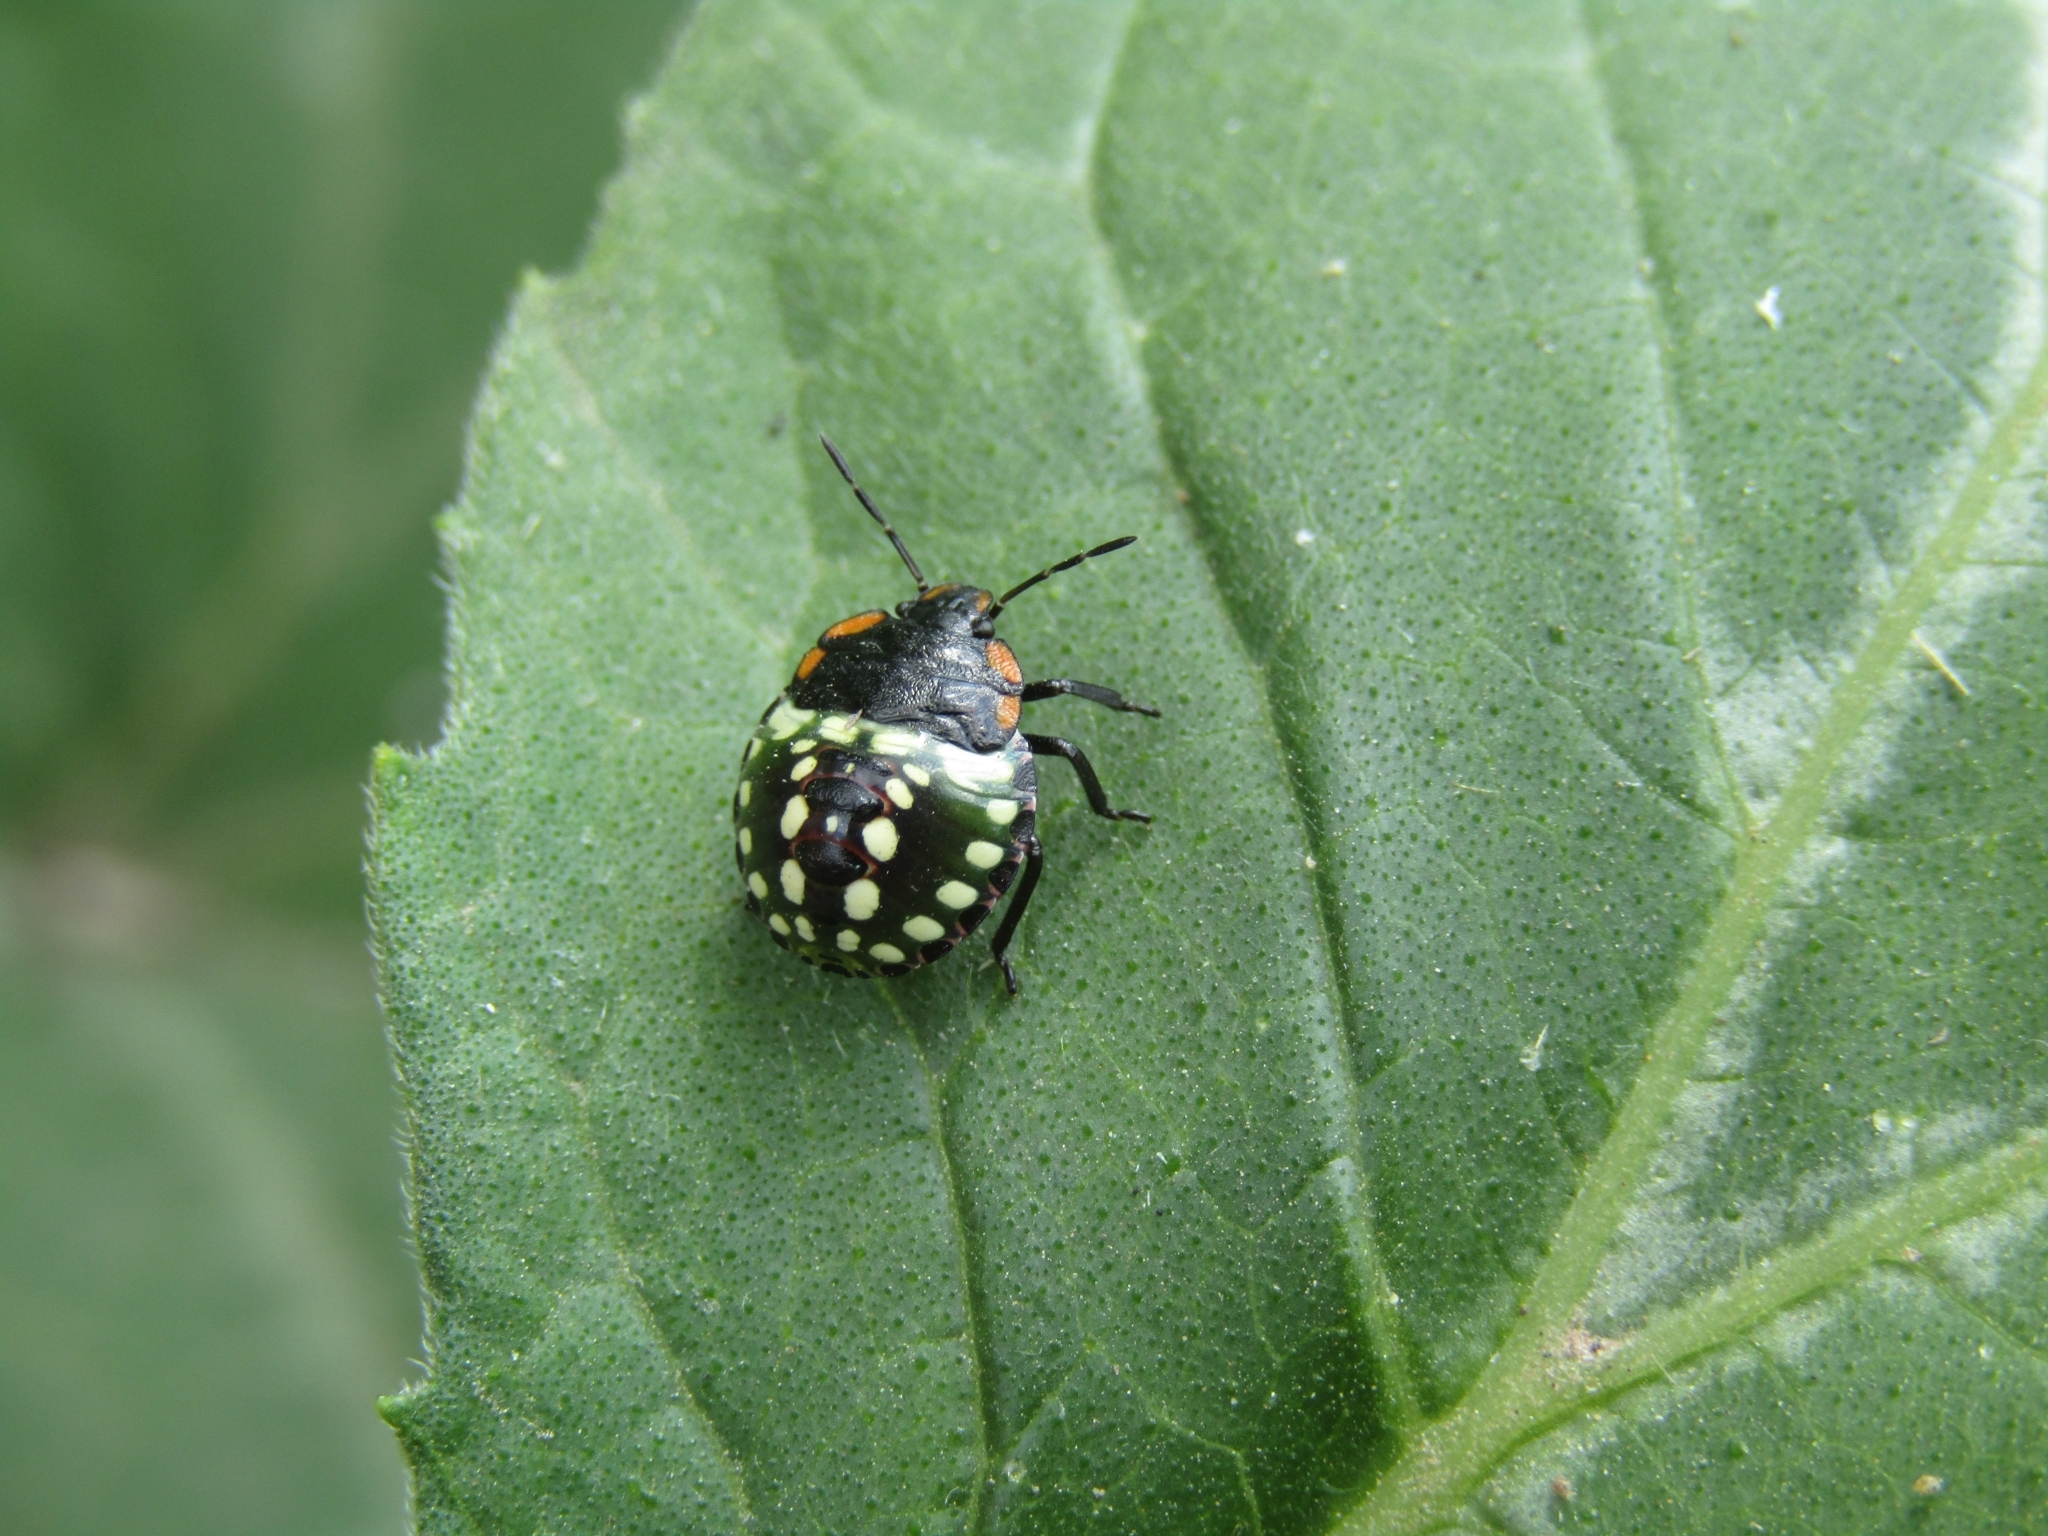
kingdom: Animalia
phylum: Arthropoda
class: Insecta
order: Hemiptera
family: Pentatomidae
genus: Nezara
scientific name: Nezara viridula
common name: Southern green stink bug
